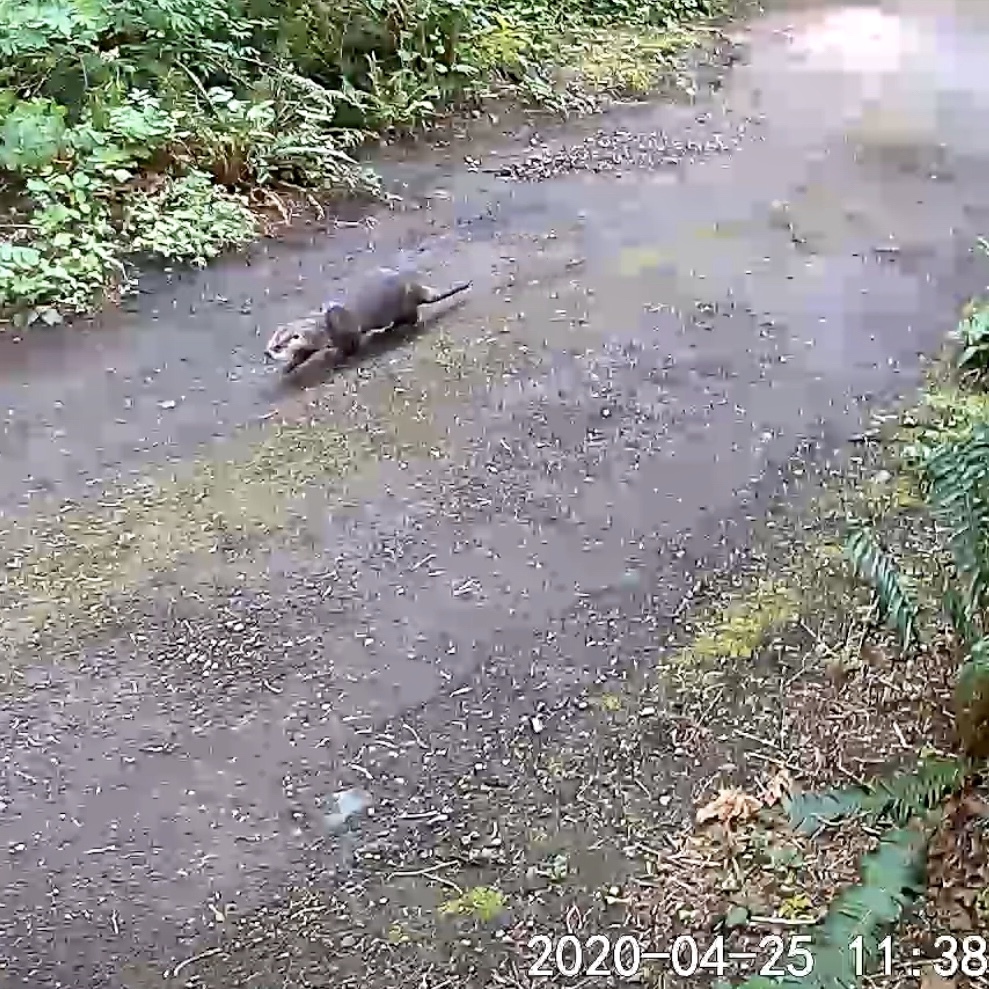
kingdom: Animalia
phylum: Chordata
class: Mammalia
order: Carnivora
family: Mustelidae
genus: Lontra
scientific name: Lontra canadensis
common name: North american river otter
